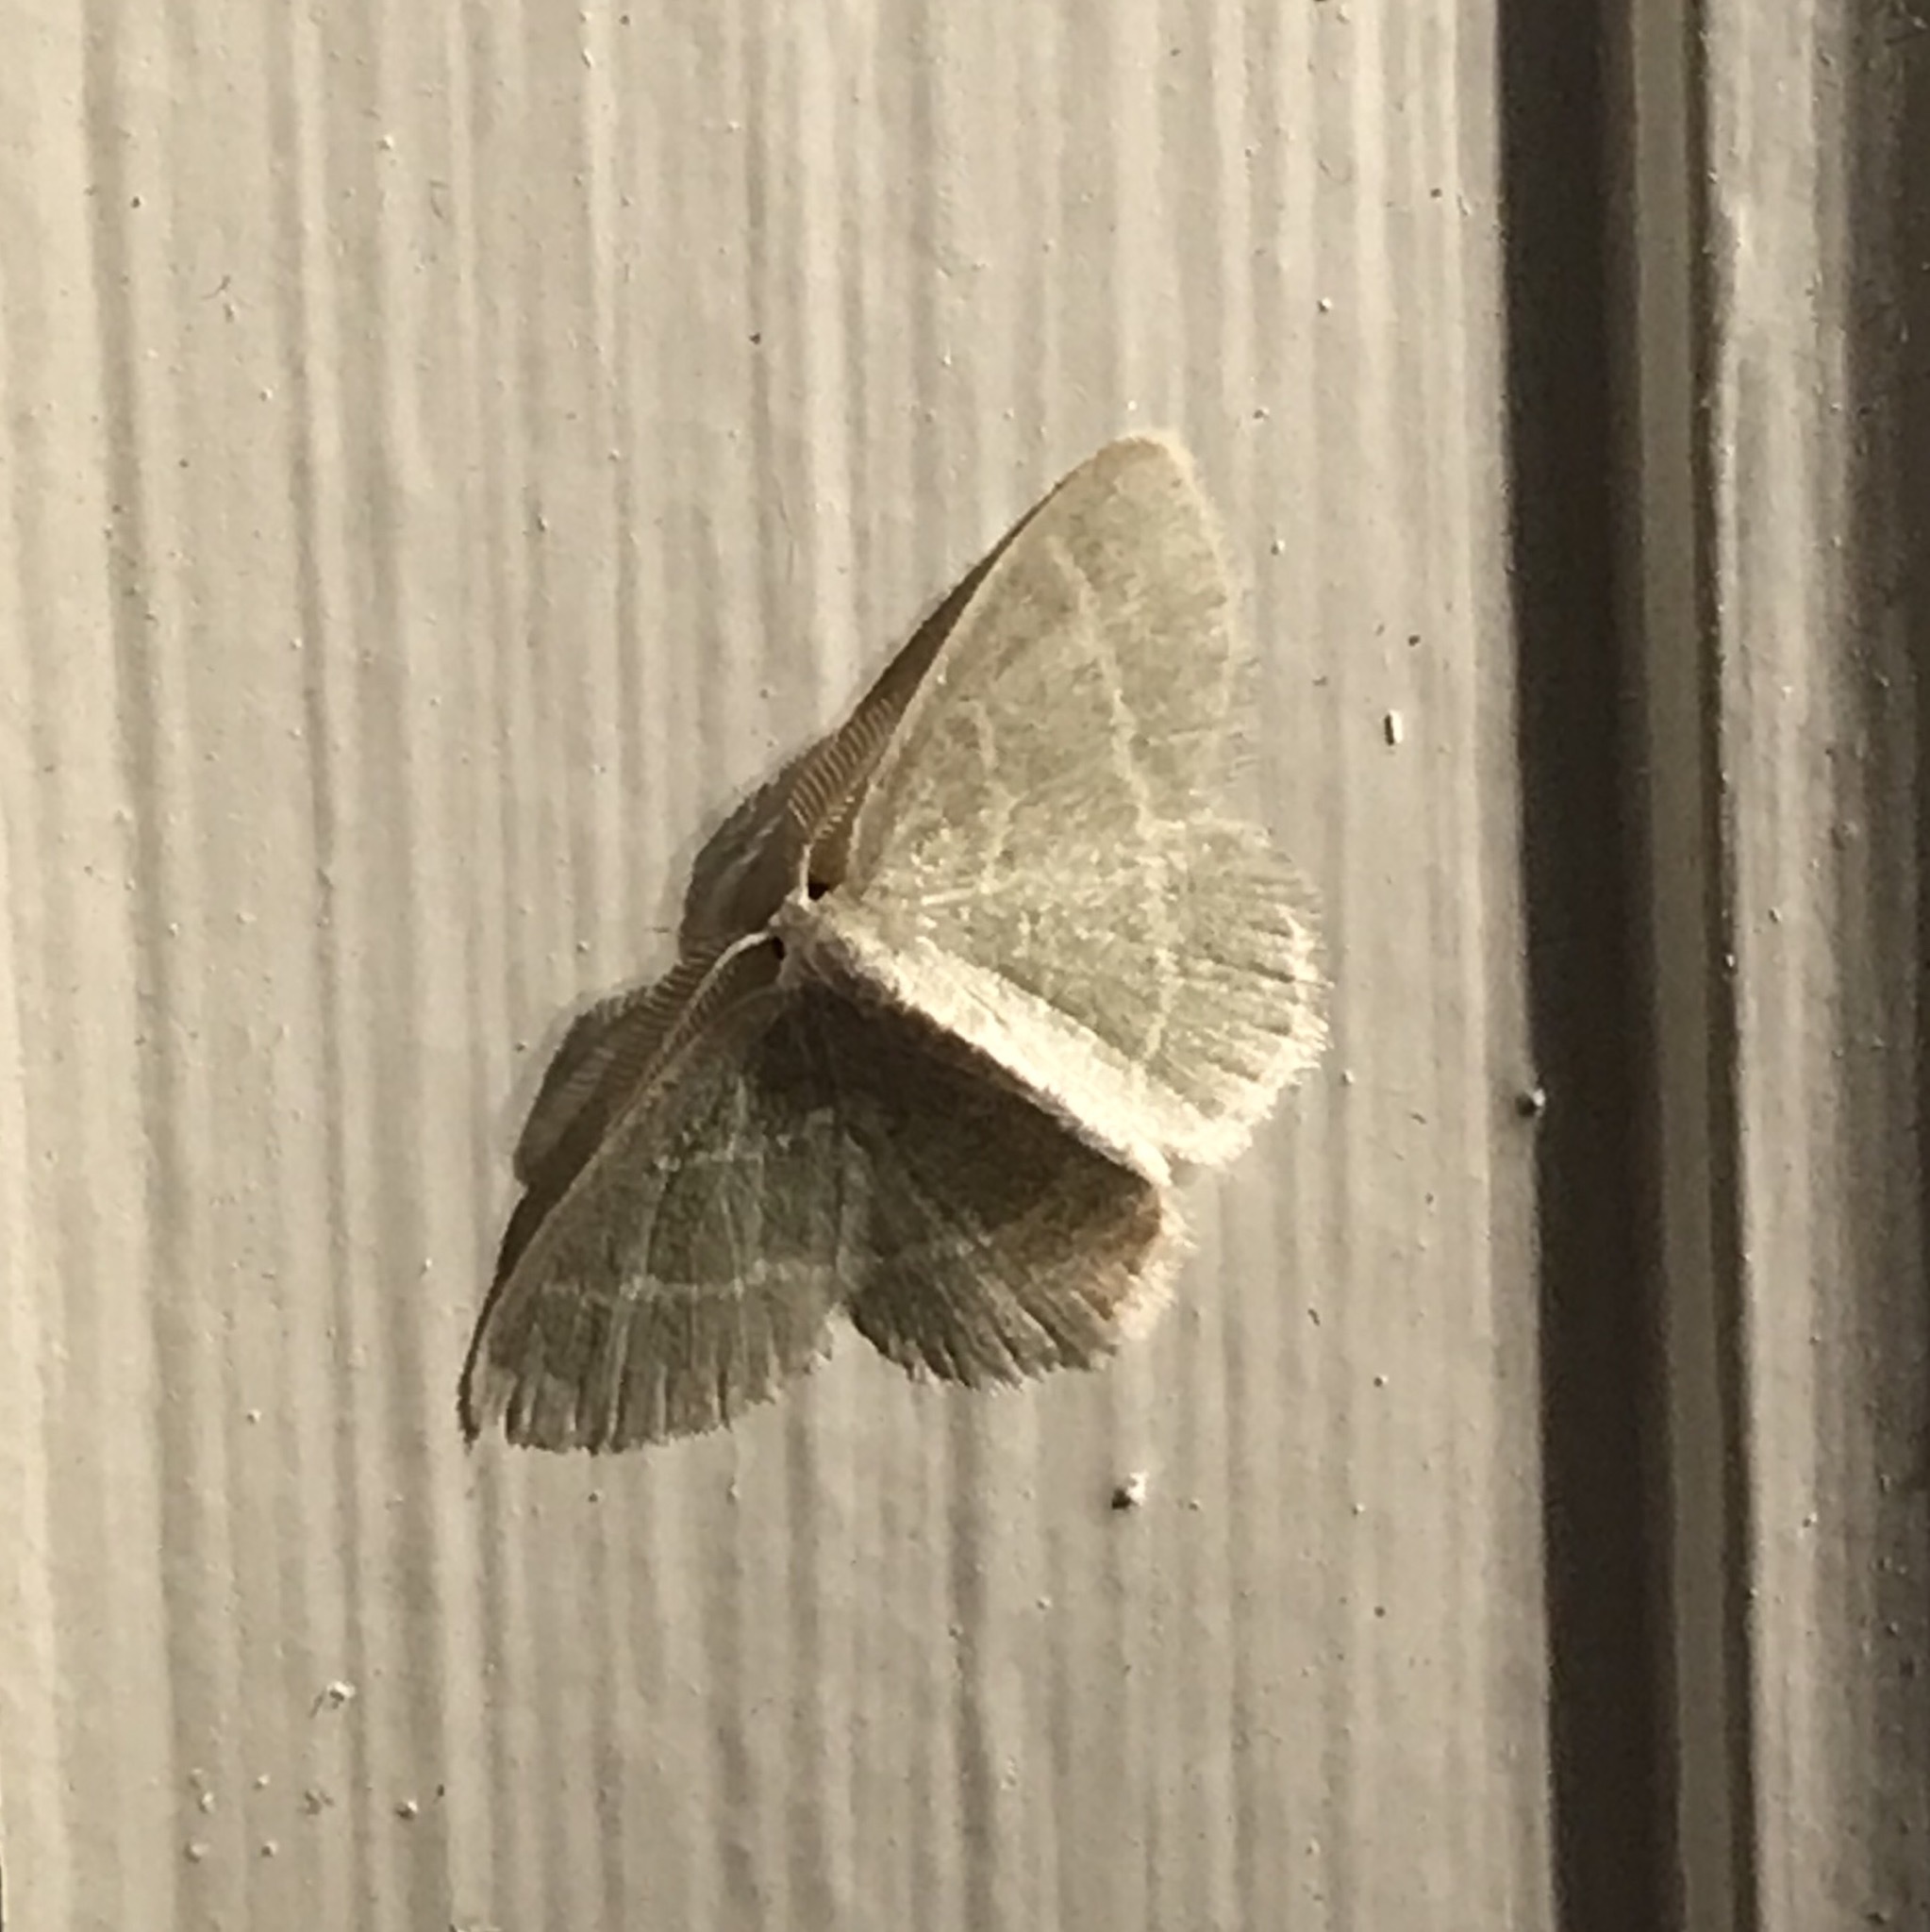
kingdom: Animalia
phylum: Arthropoda
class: Insecta
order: Lepidoptera
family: Geometridae
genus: Chlorochlamys
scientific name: Chlorochlamys chloroleucaria
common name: Blackberry looper
